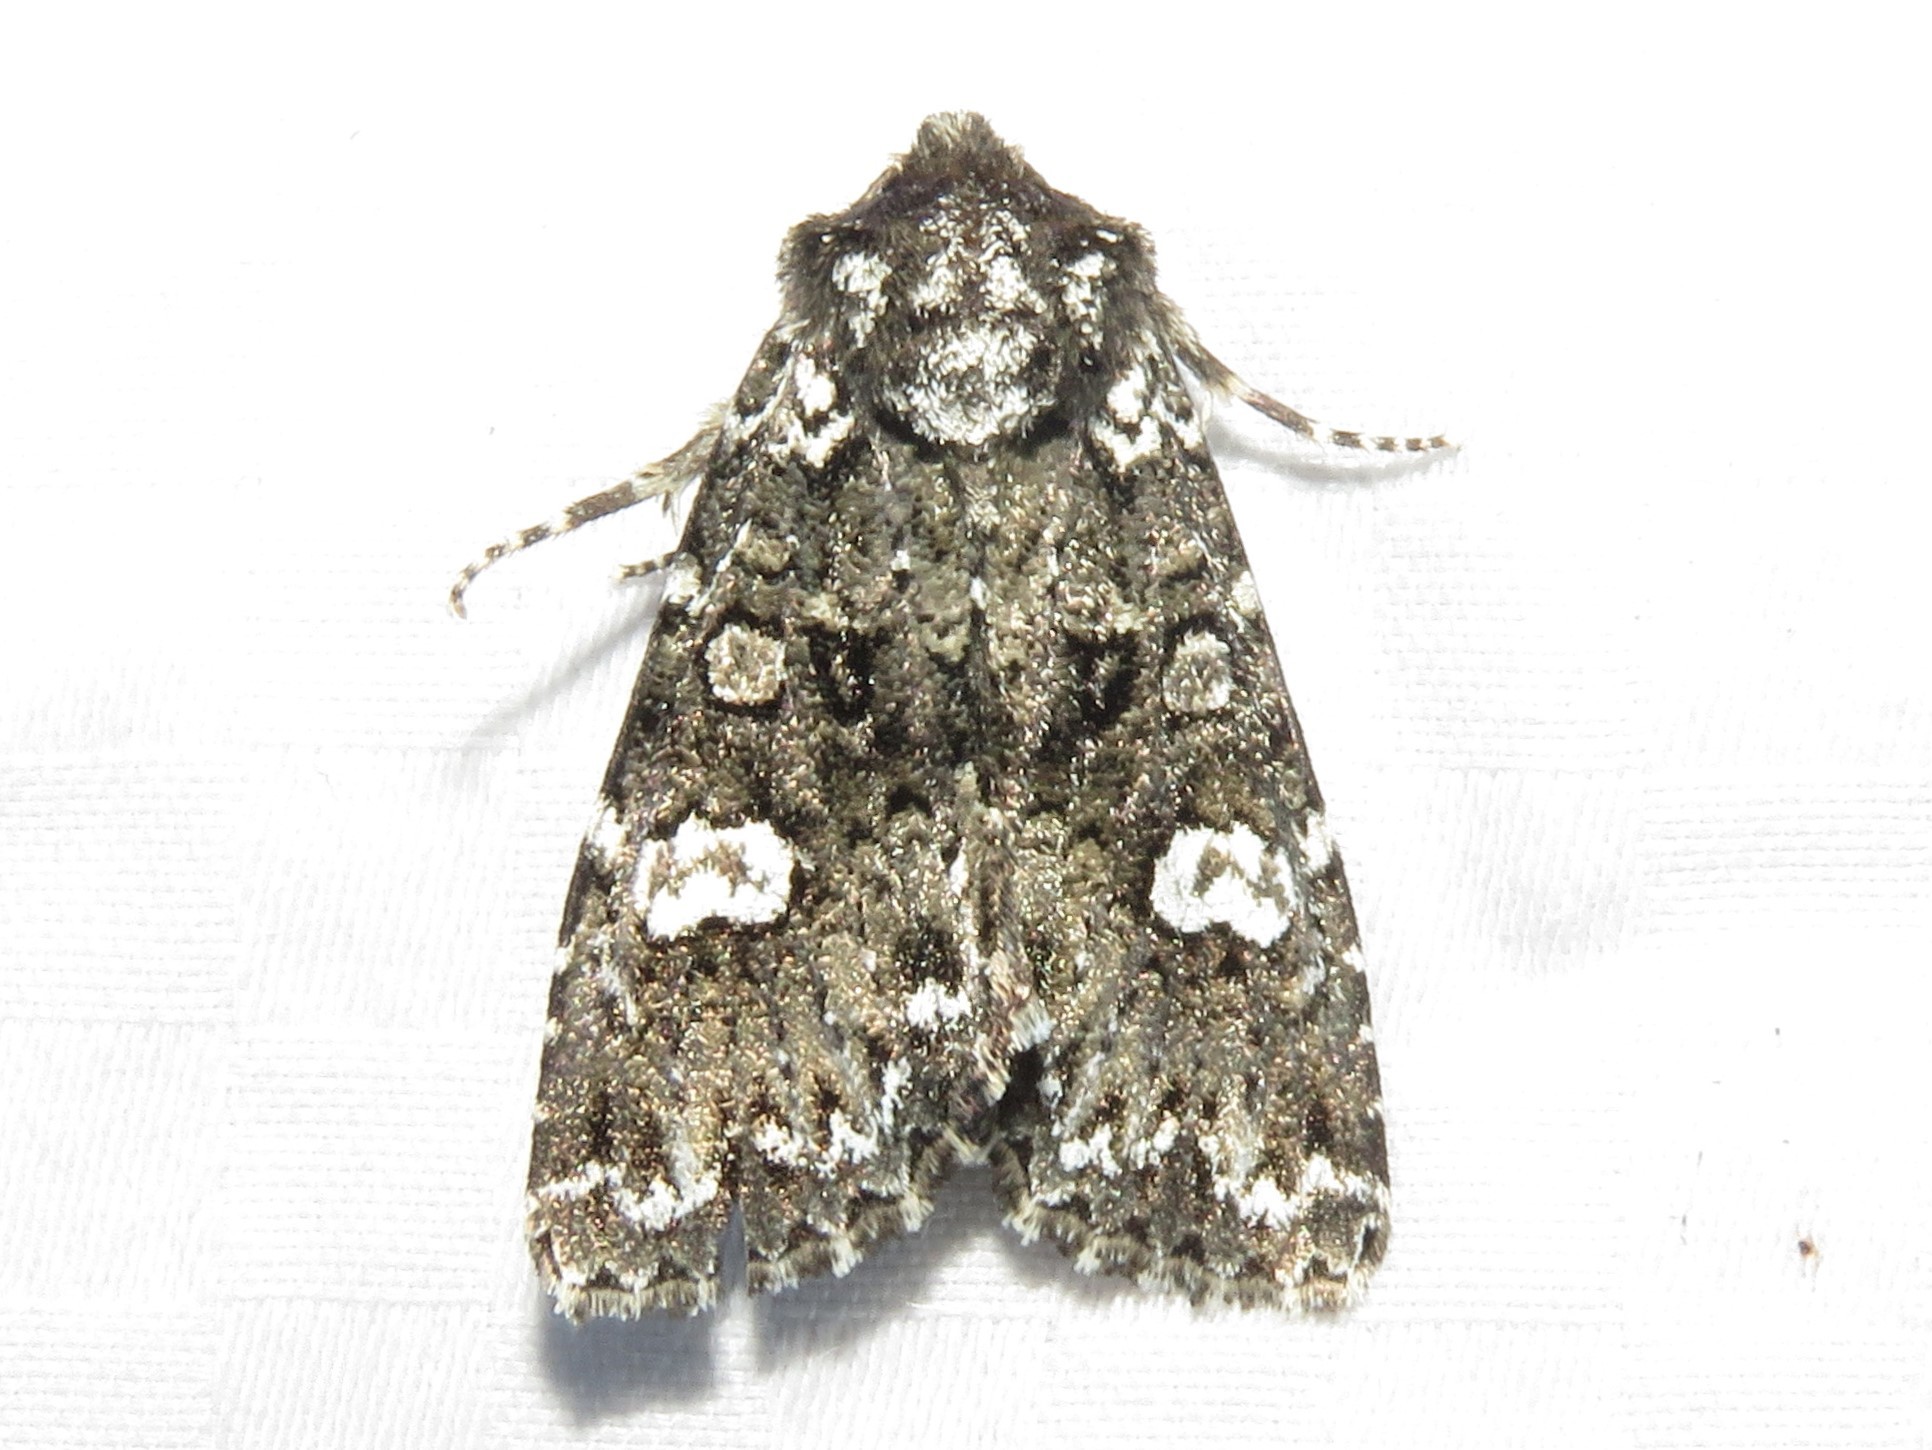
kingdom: Animalia
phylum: Arthropoda
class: Insecta
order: Lepidoptera
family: Noctuidae
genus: Melanchra
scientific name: Melanchra adjuncta
